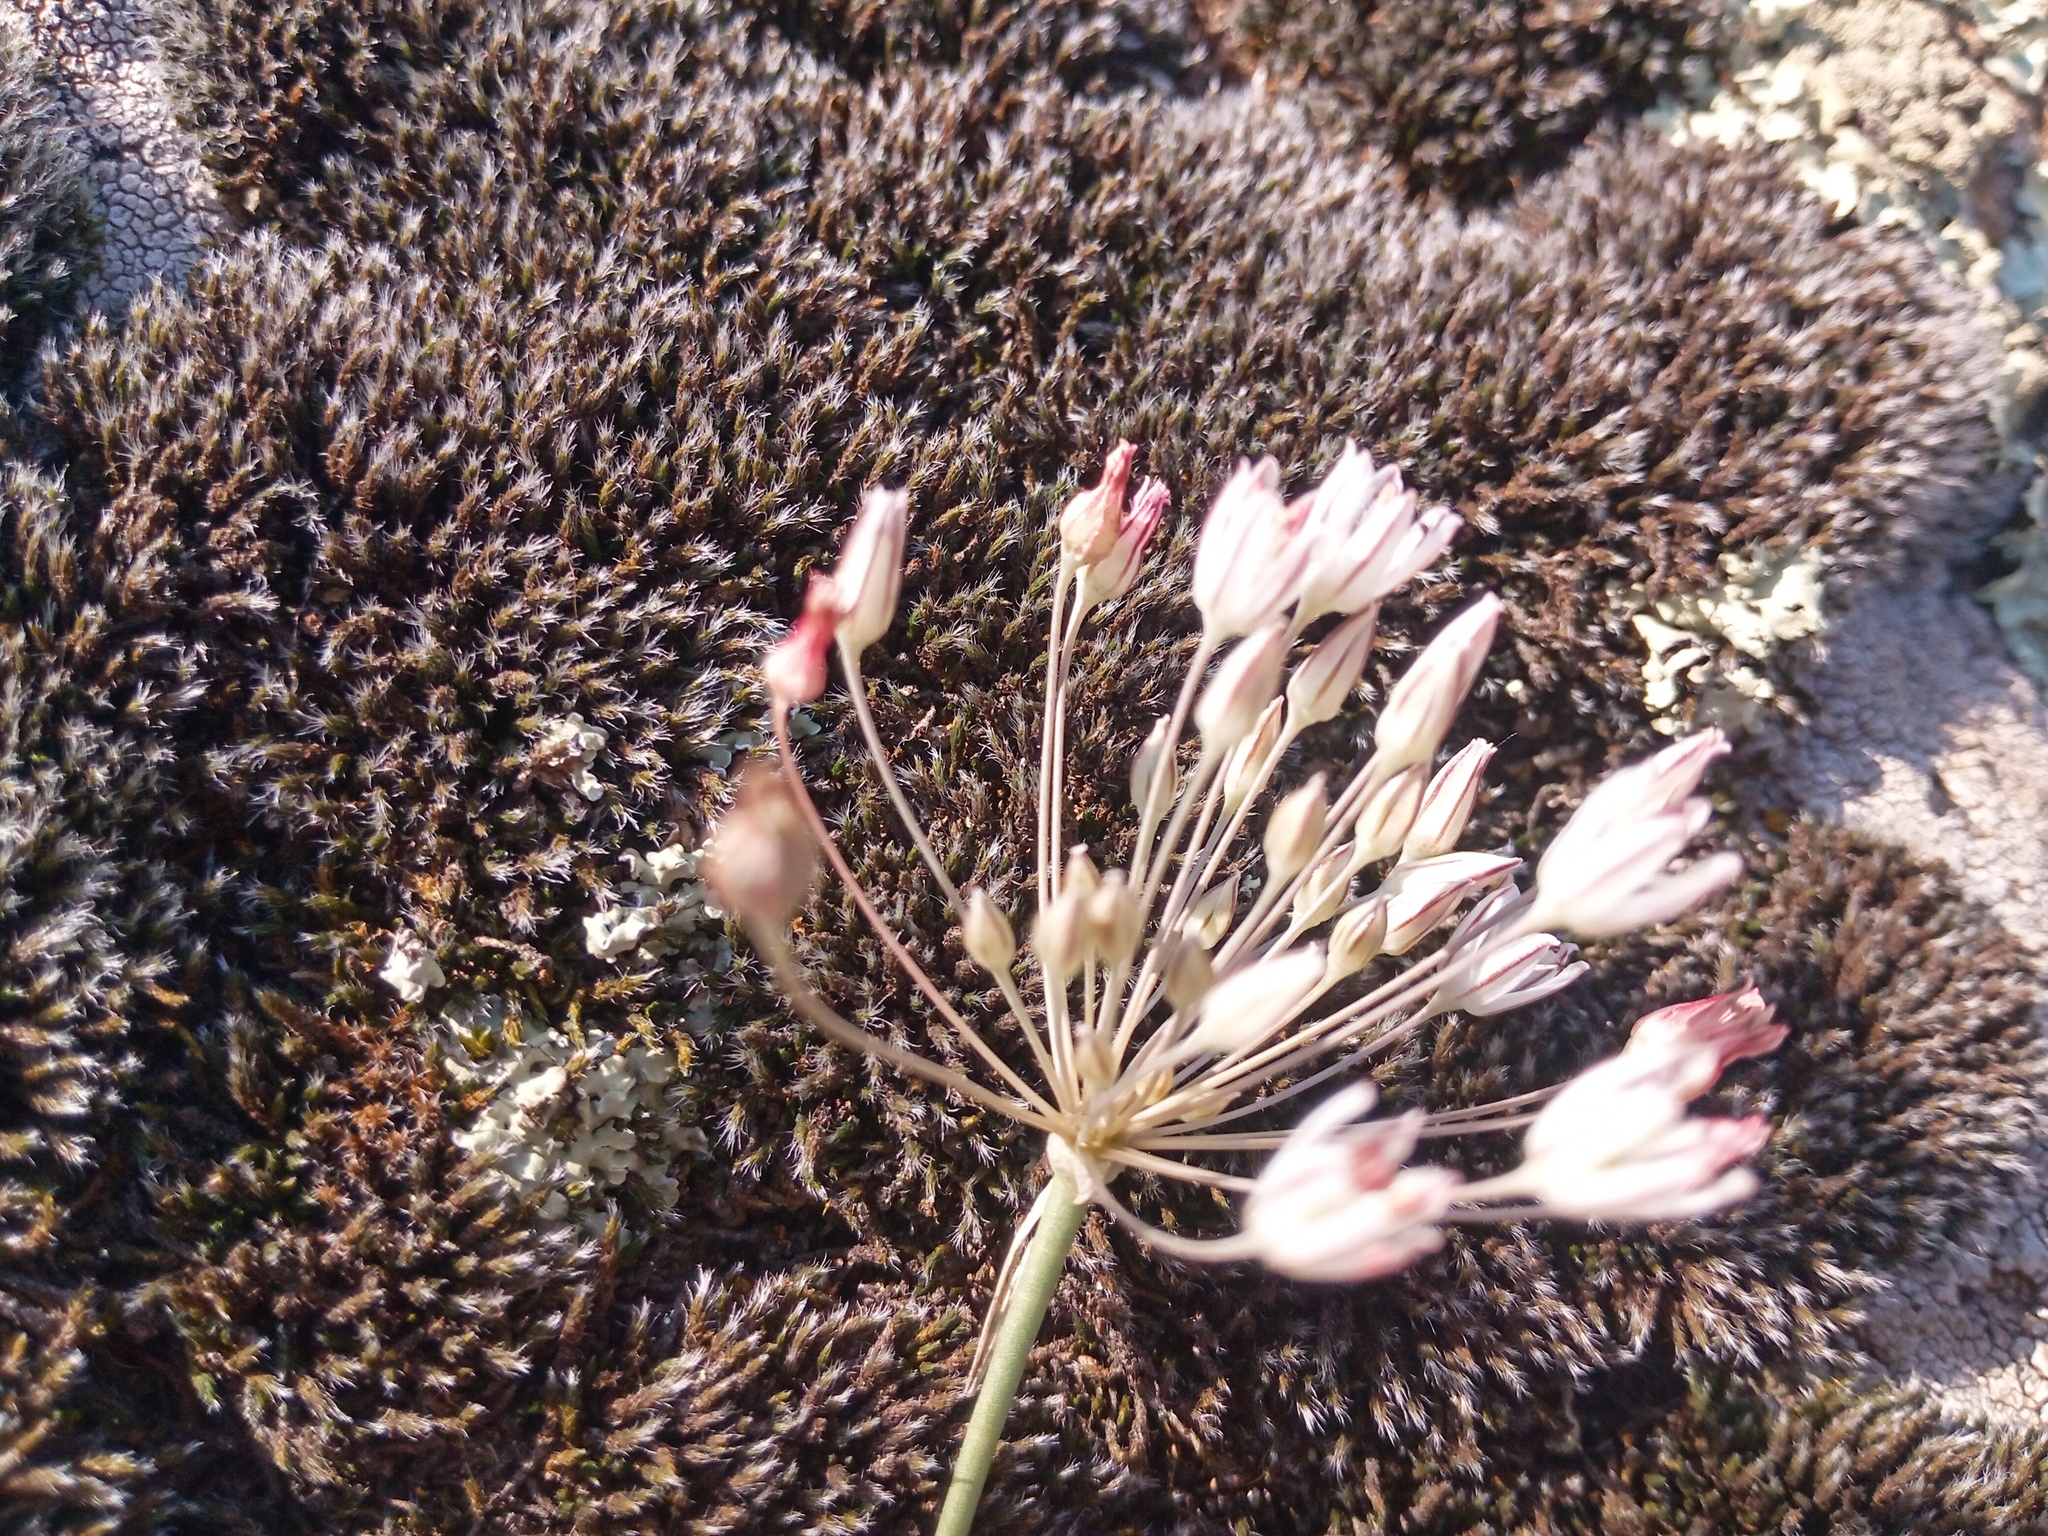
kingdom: Plantae
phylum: Tracheophyta
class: Liliopsida
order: Asparagales
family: Amaryllidaceae
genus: Allium
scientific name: Allium inaequale
